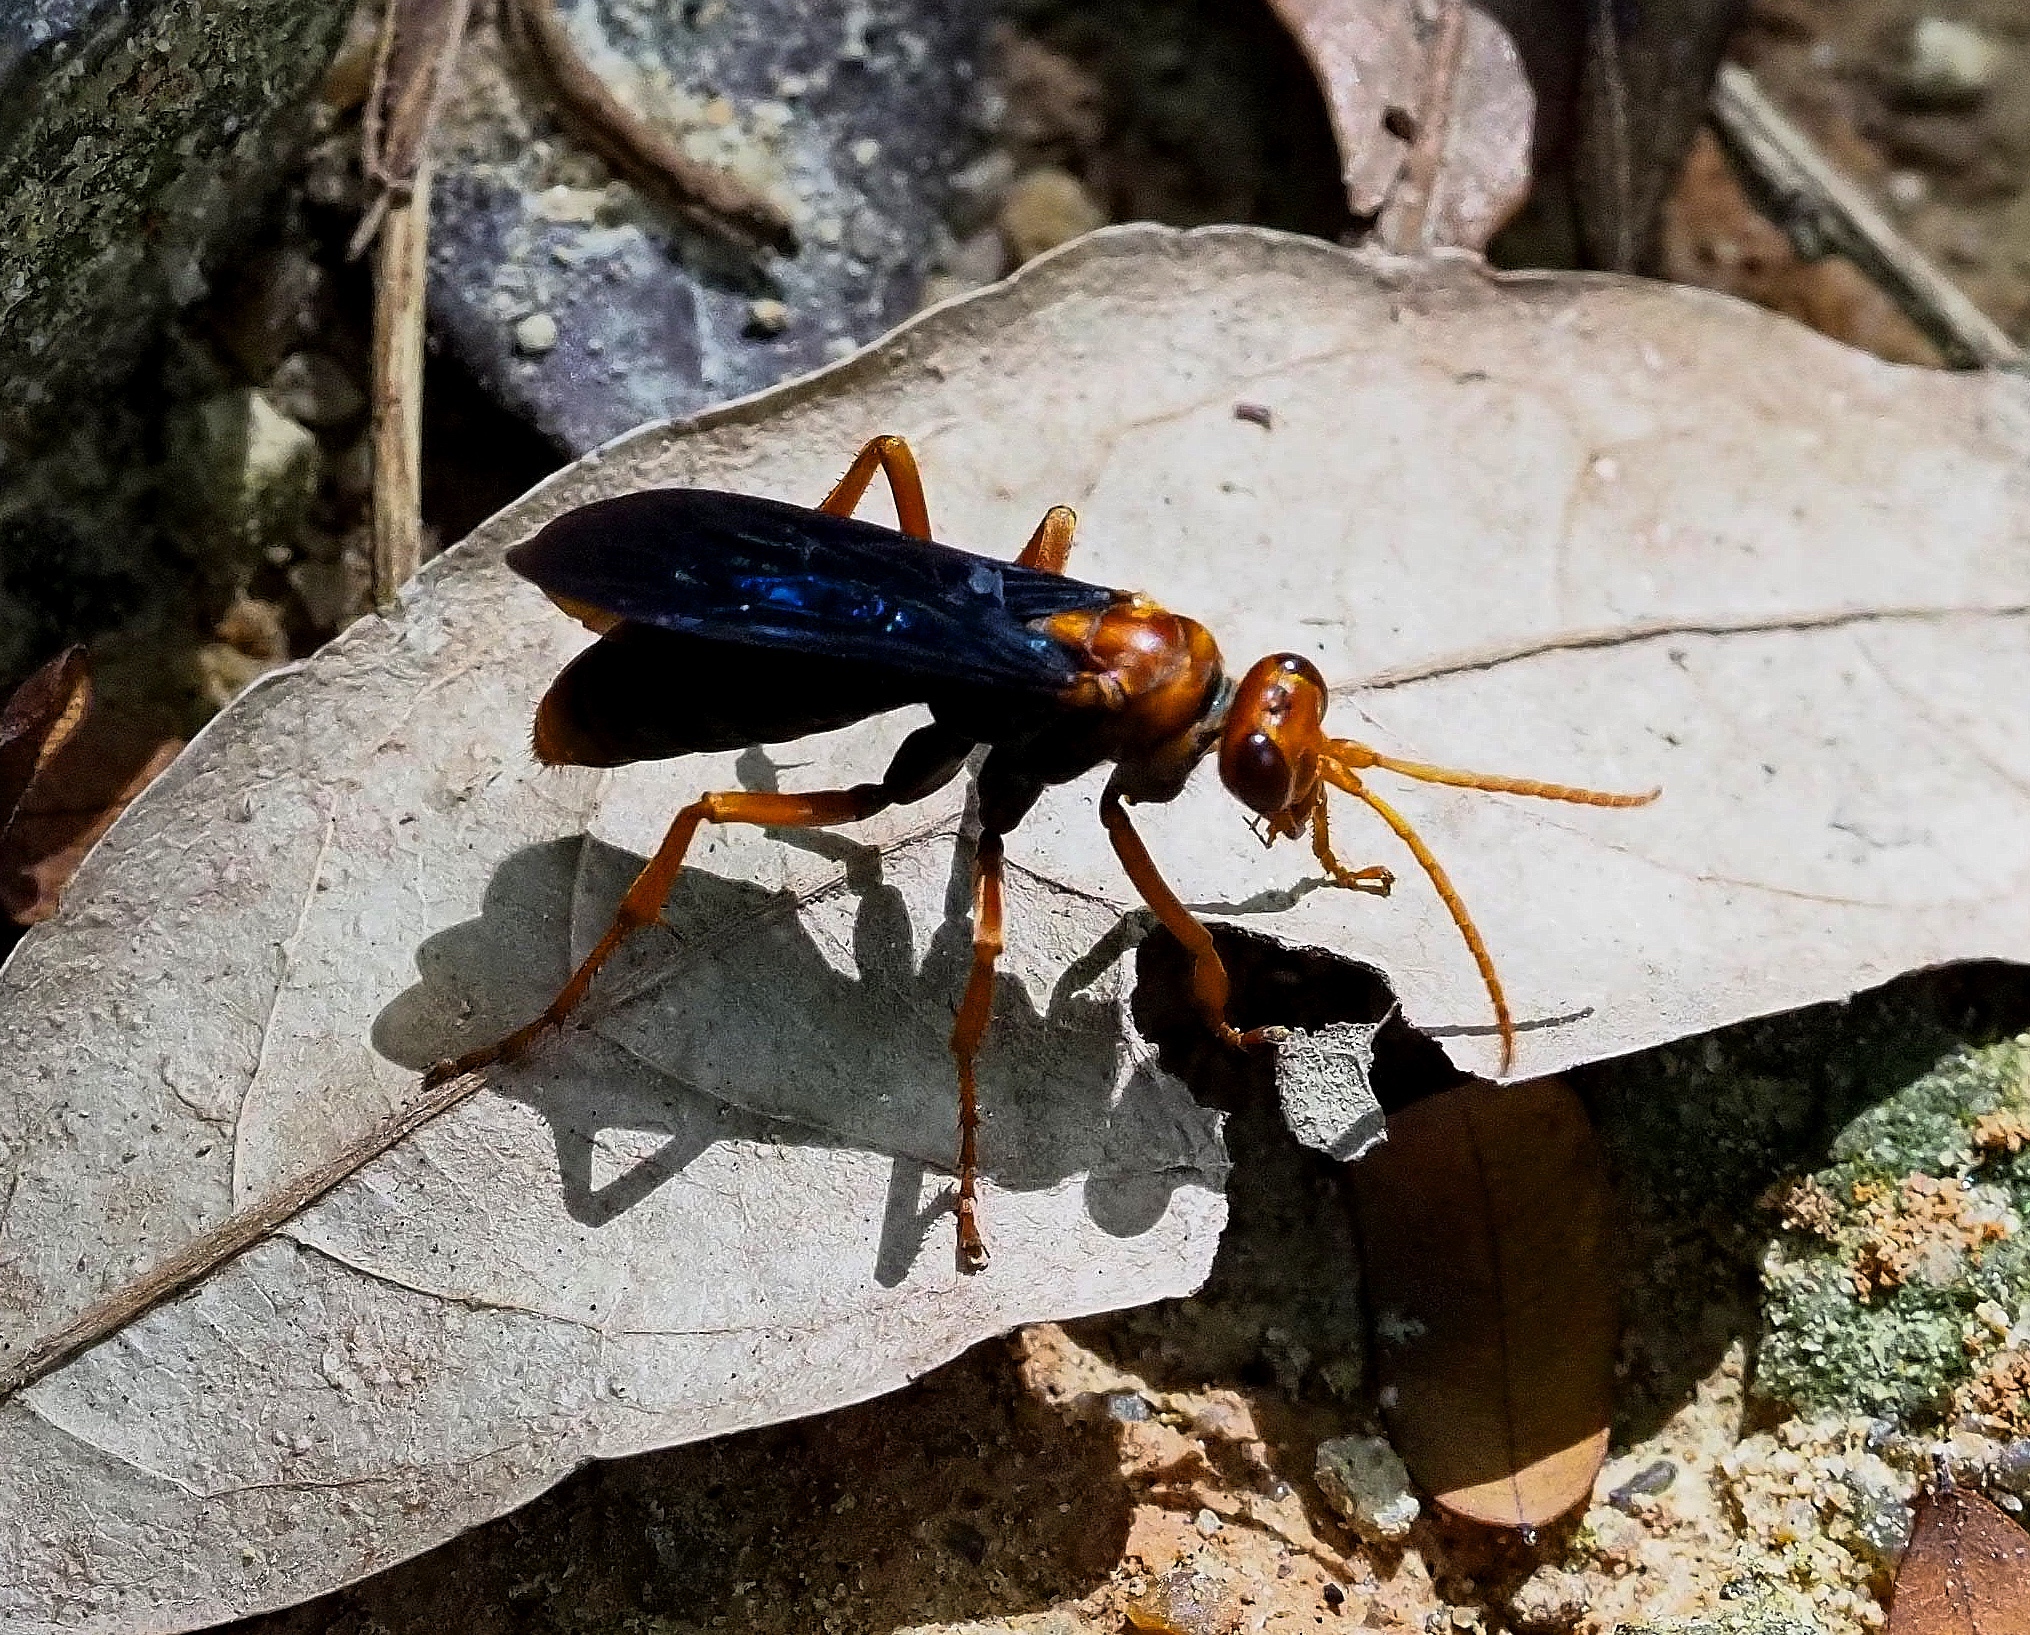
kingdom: Animalia
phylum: Arthropoda
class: Insecta
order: Hymenoptera
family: Pompilidae
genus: Batozonellus
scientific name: Batozonellus maculifrons
